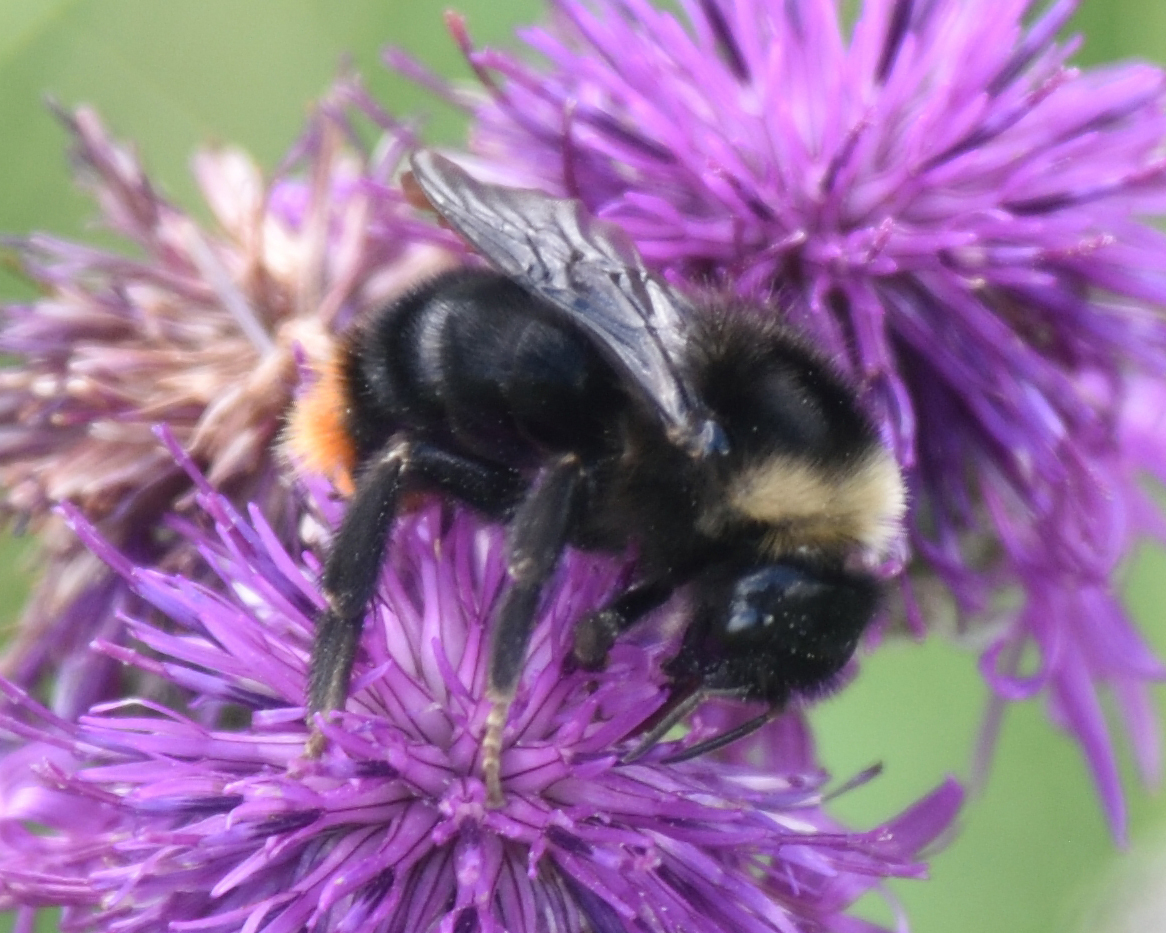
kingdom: Animalia
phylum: Arthropoda
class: Insecta
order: Hymenoptera
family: Apidae
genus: Bombus
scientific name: Bombus rupestris
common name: Hill cuckoo-bee
